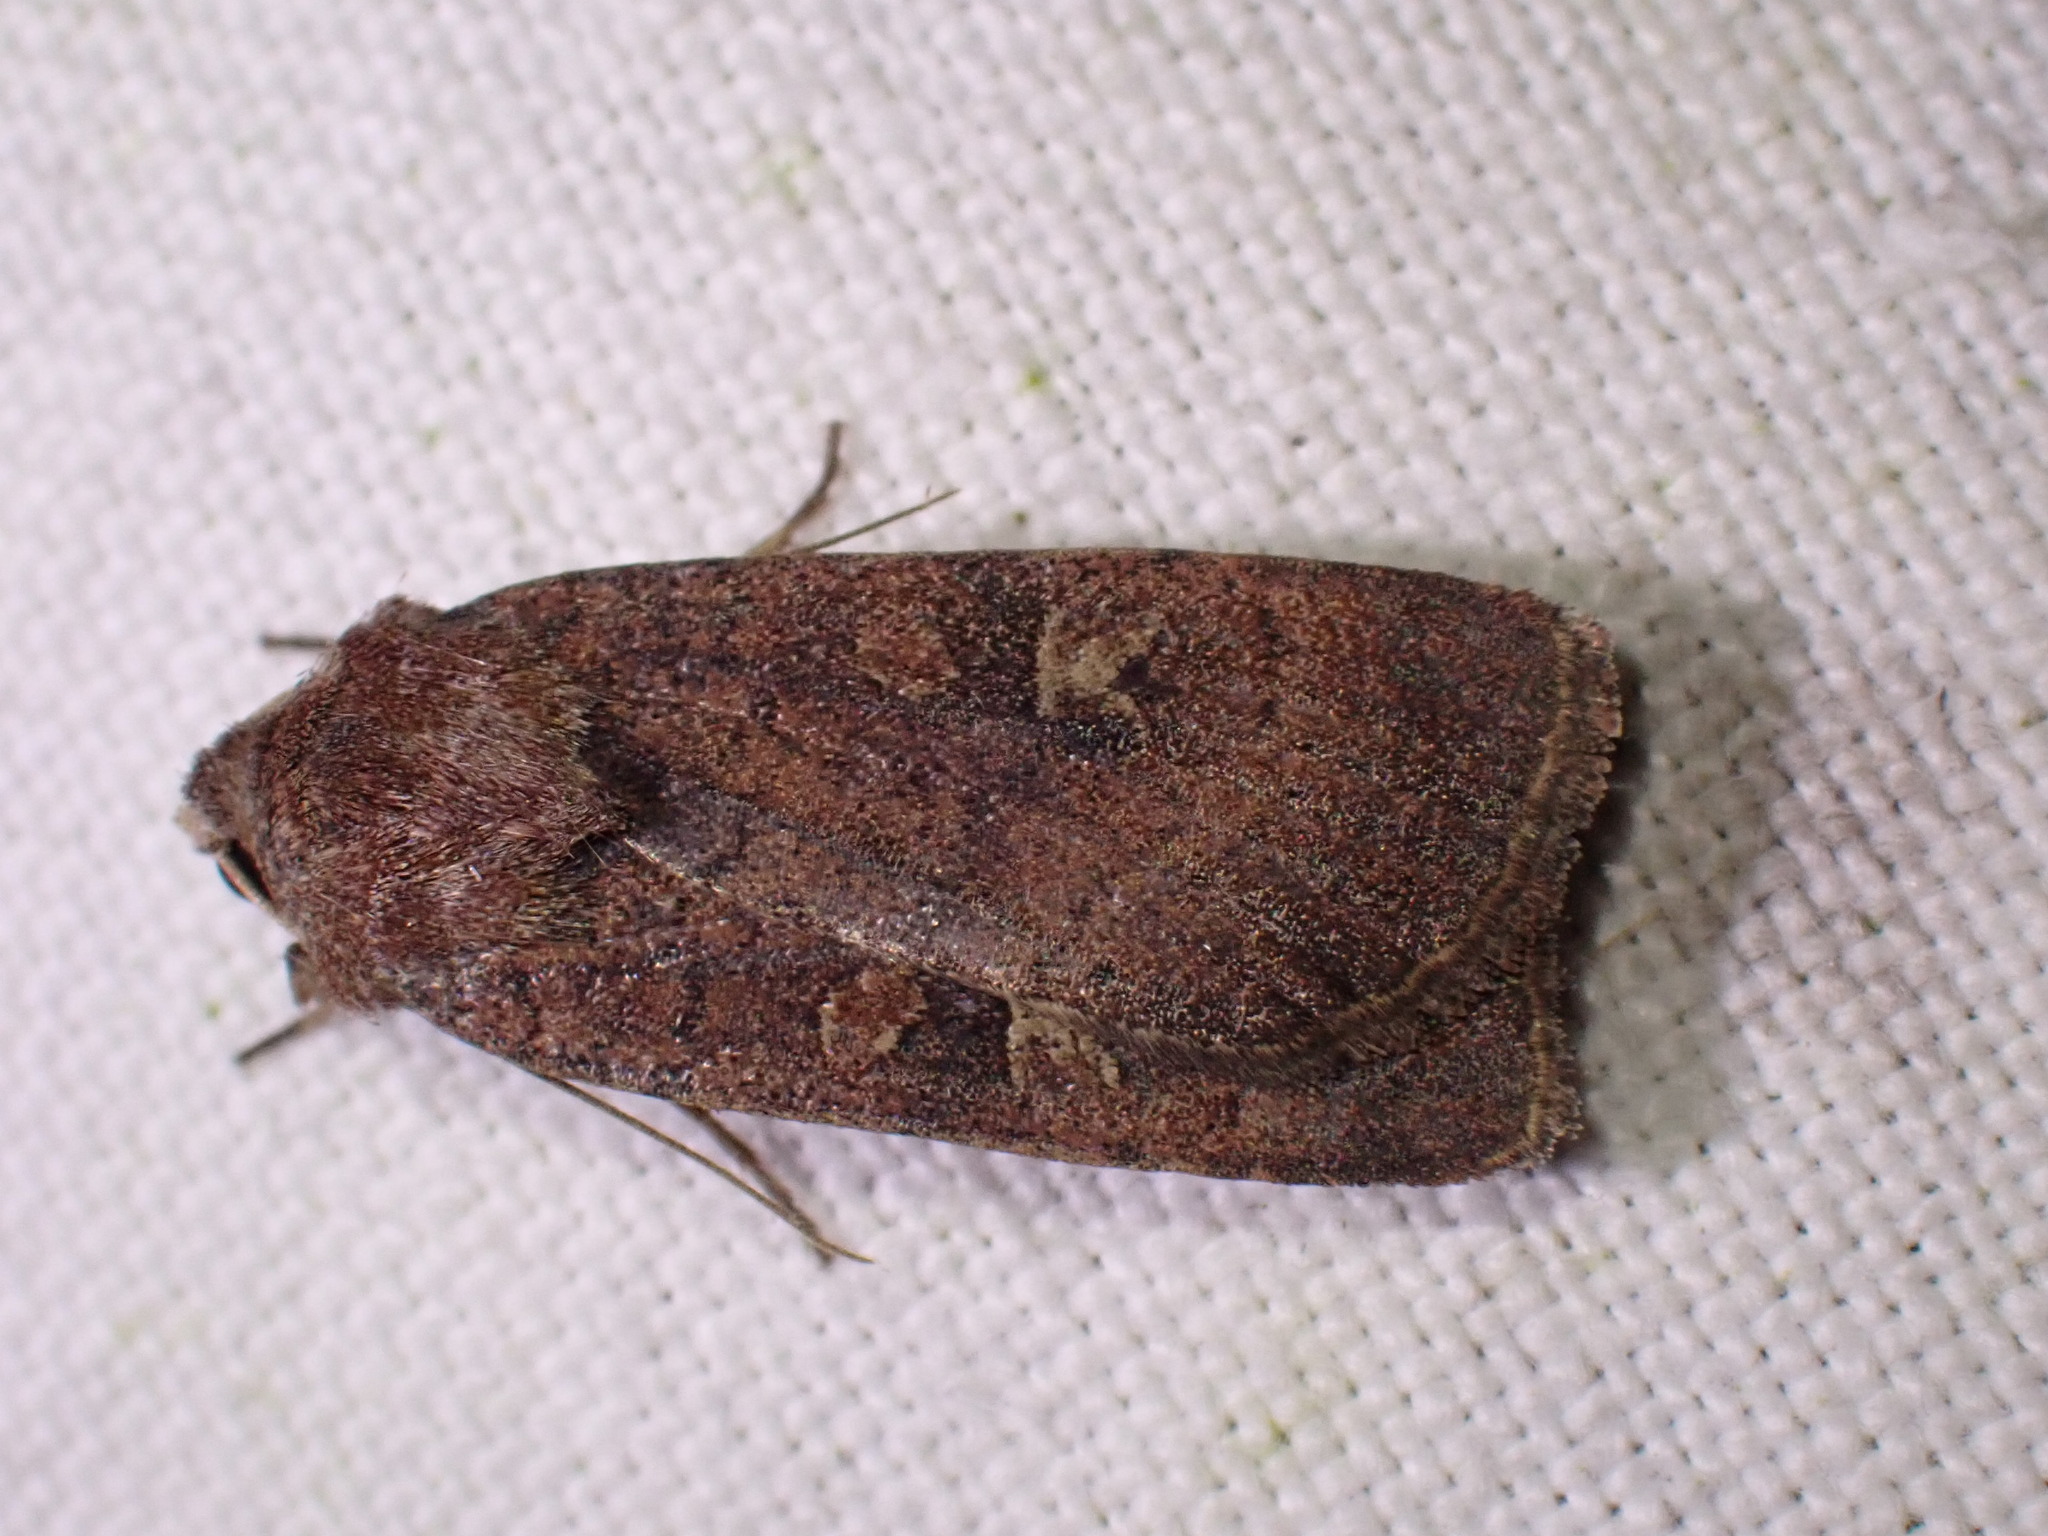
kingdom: Animalia
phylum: Arthropoda
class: Insecta
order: Lepidoptera
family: Noctuidae
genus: Xestia
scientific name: Xestia xanthographa
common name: Square-spot rustic
